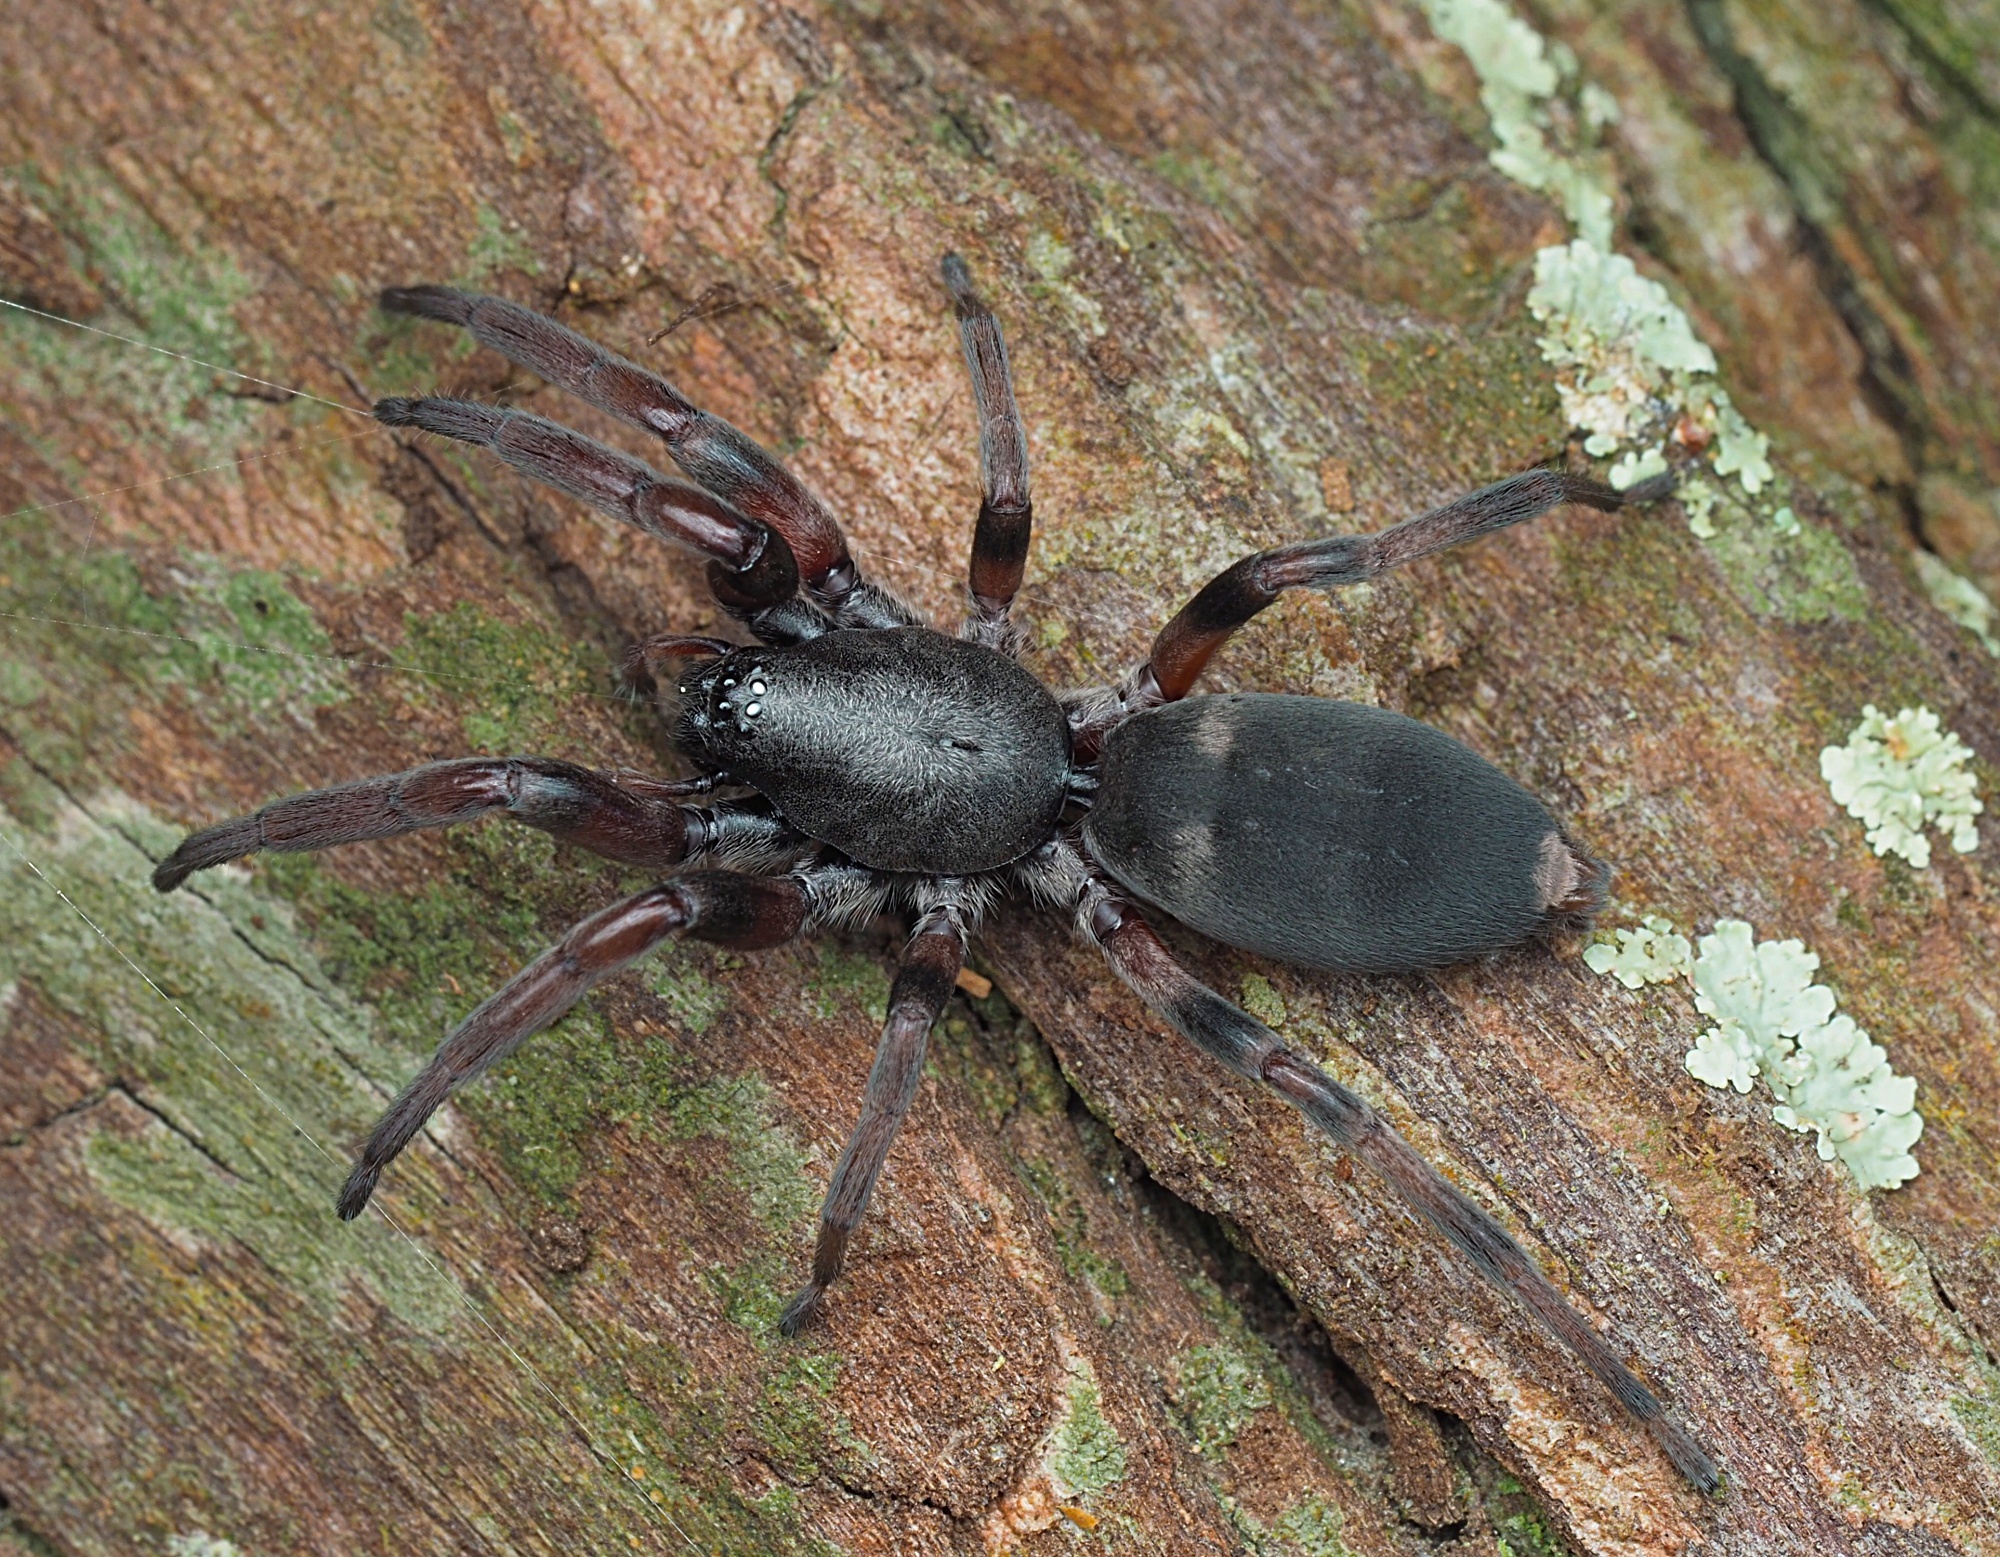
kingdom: Animalia
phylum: Arthropoda
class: Arachnida
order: Araneae
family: Lamponidae
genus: Lampona
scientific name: Lampona murina
